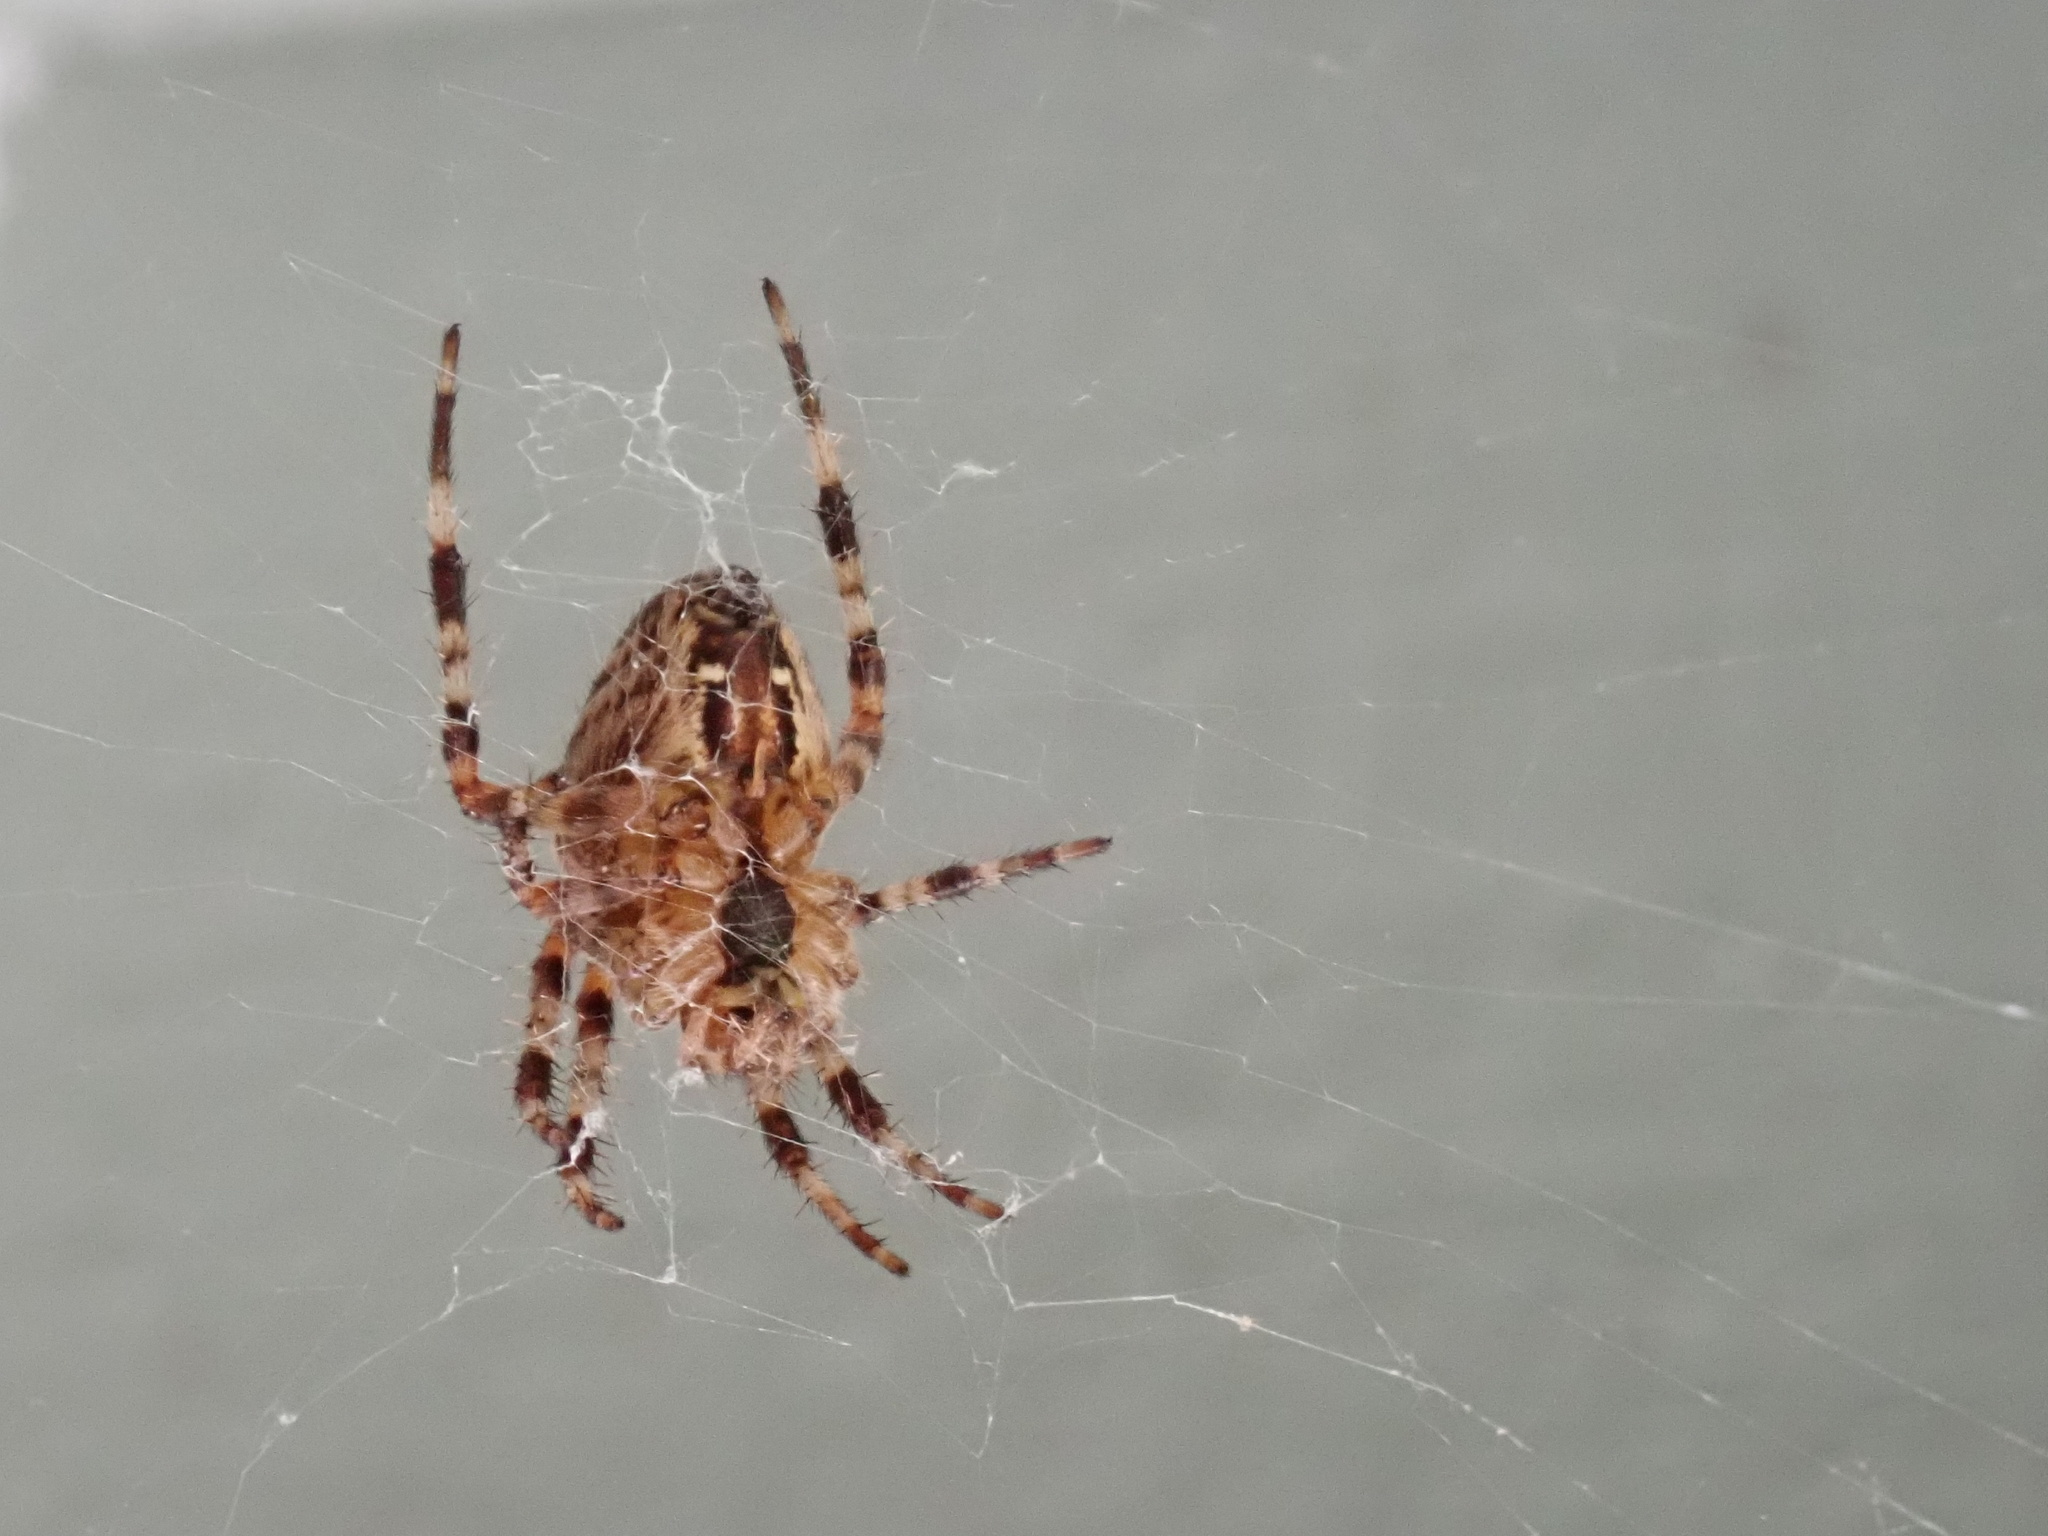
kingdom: Animalia
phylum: Arthropoda
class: Arachnida
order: Araneae
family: Araneidae
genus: Araneus
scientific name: Araneus diadematus
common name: Cross orbweaver
